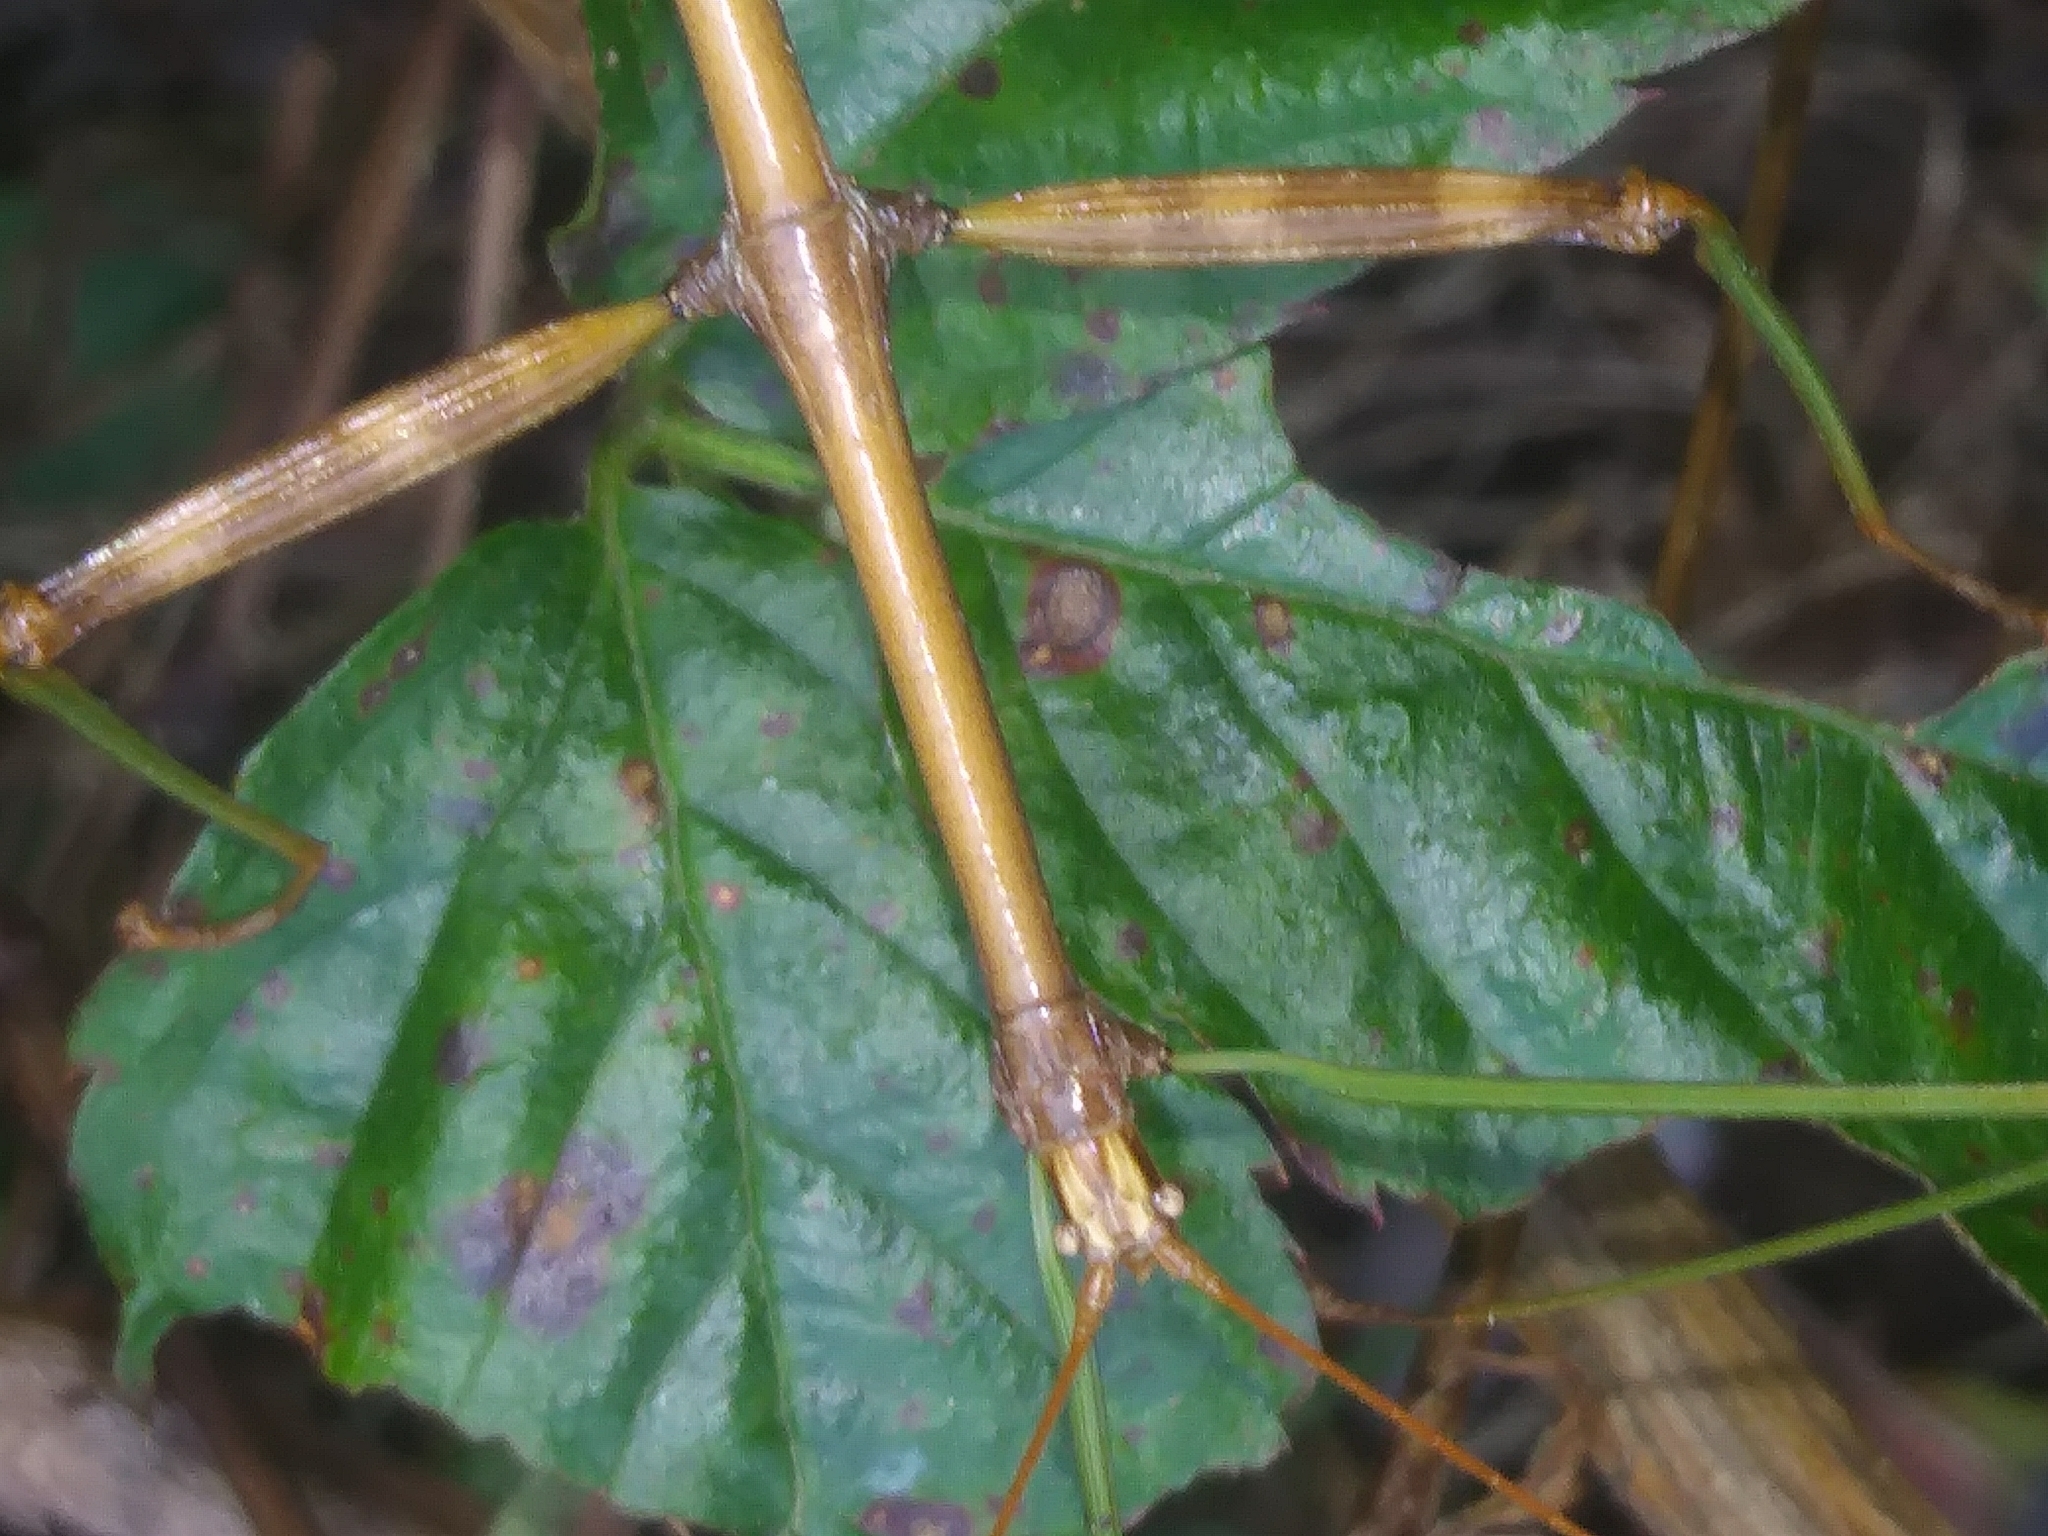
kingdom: Animalia
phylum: Arthropoda
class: Insecta
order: Phasmida
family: Diapheromeridae
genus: Diapheromera
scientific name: Diapheromera femorata
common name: Common american walkingstick
